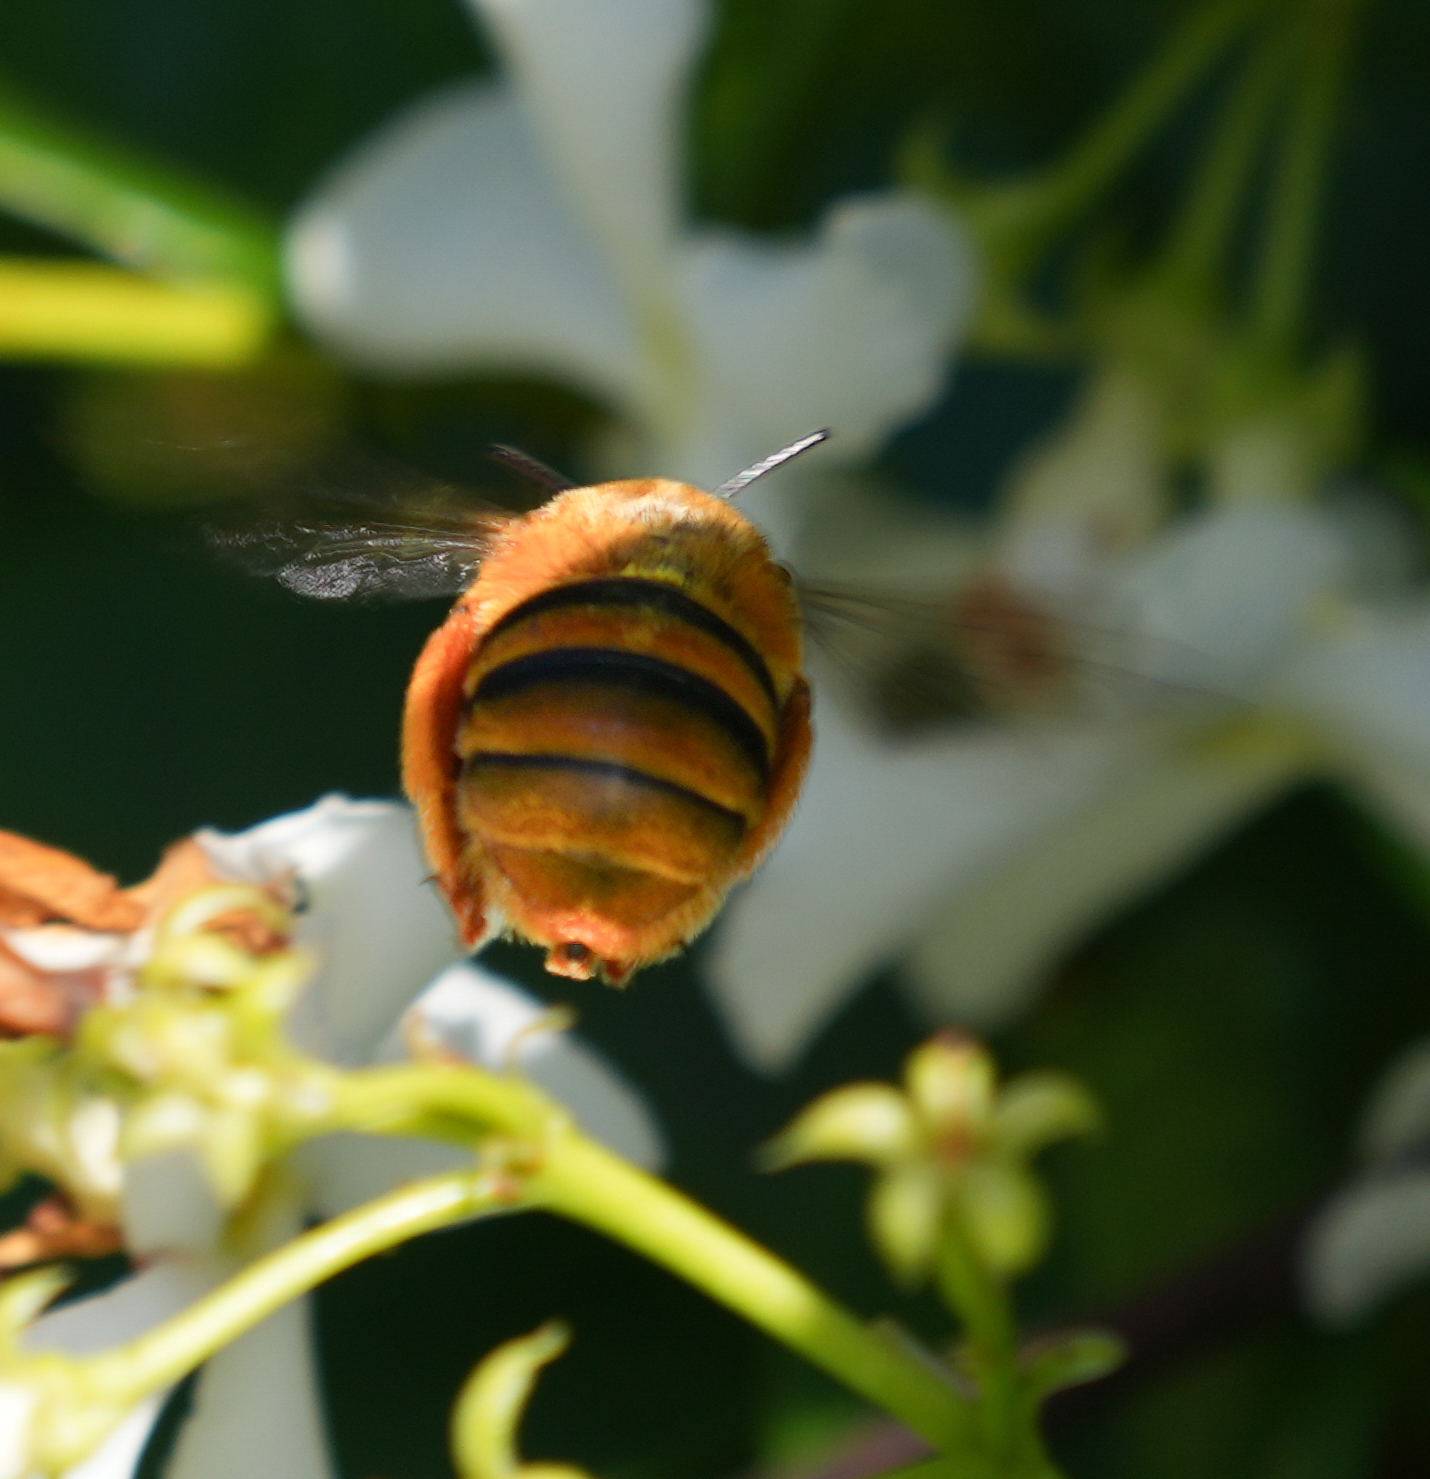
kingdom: Animalia
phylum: Arthropoda
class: Insecta
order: Hymenoptera
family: Apidae
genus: Amegilla
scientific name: Amegilla bombiformis
